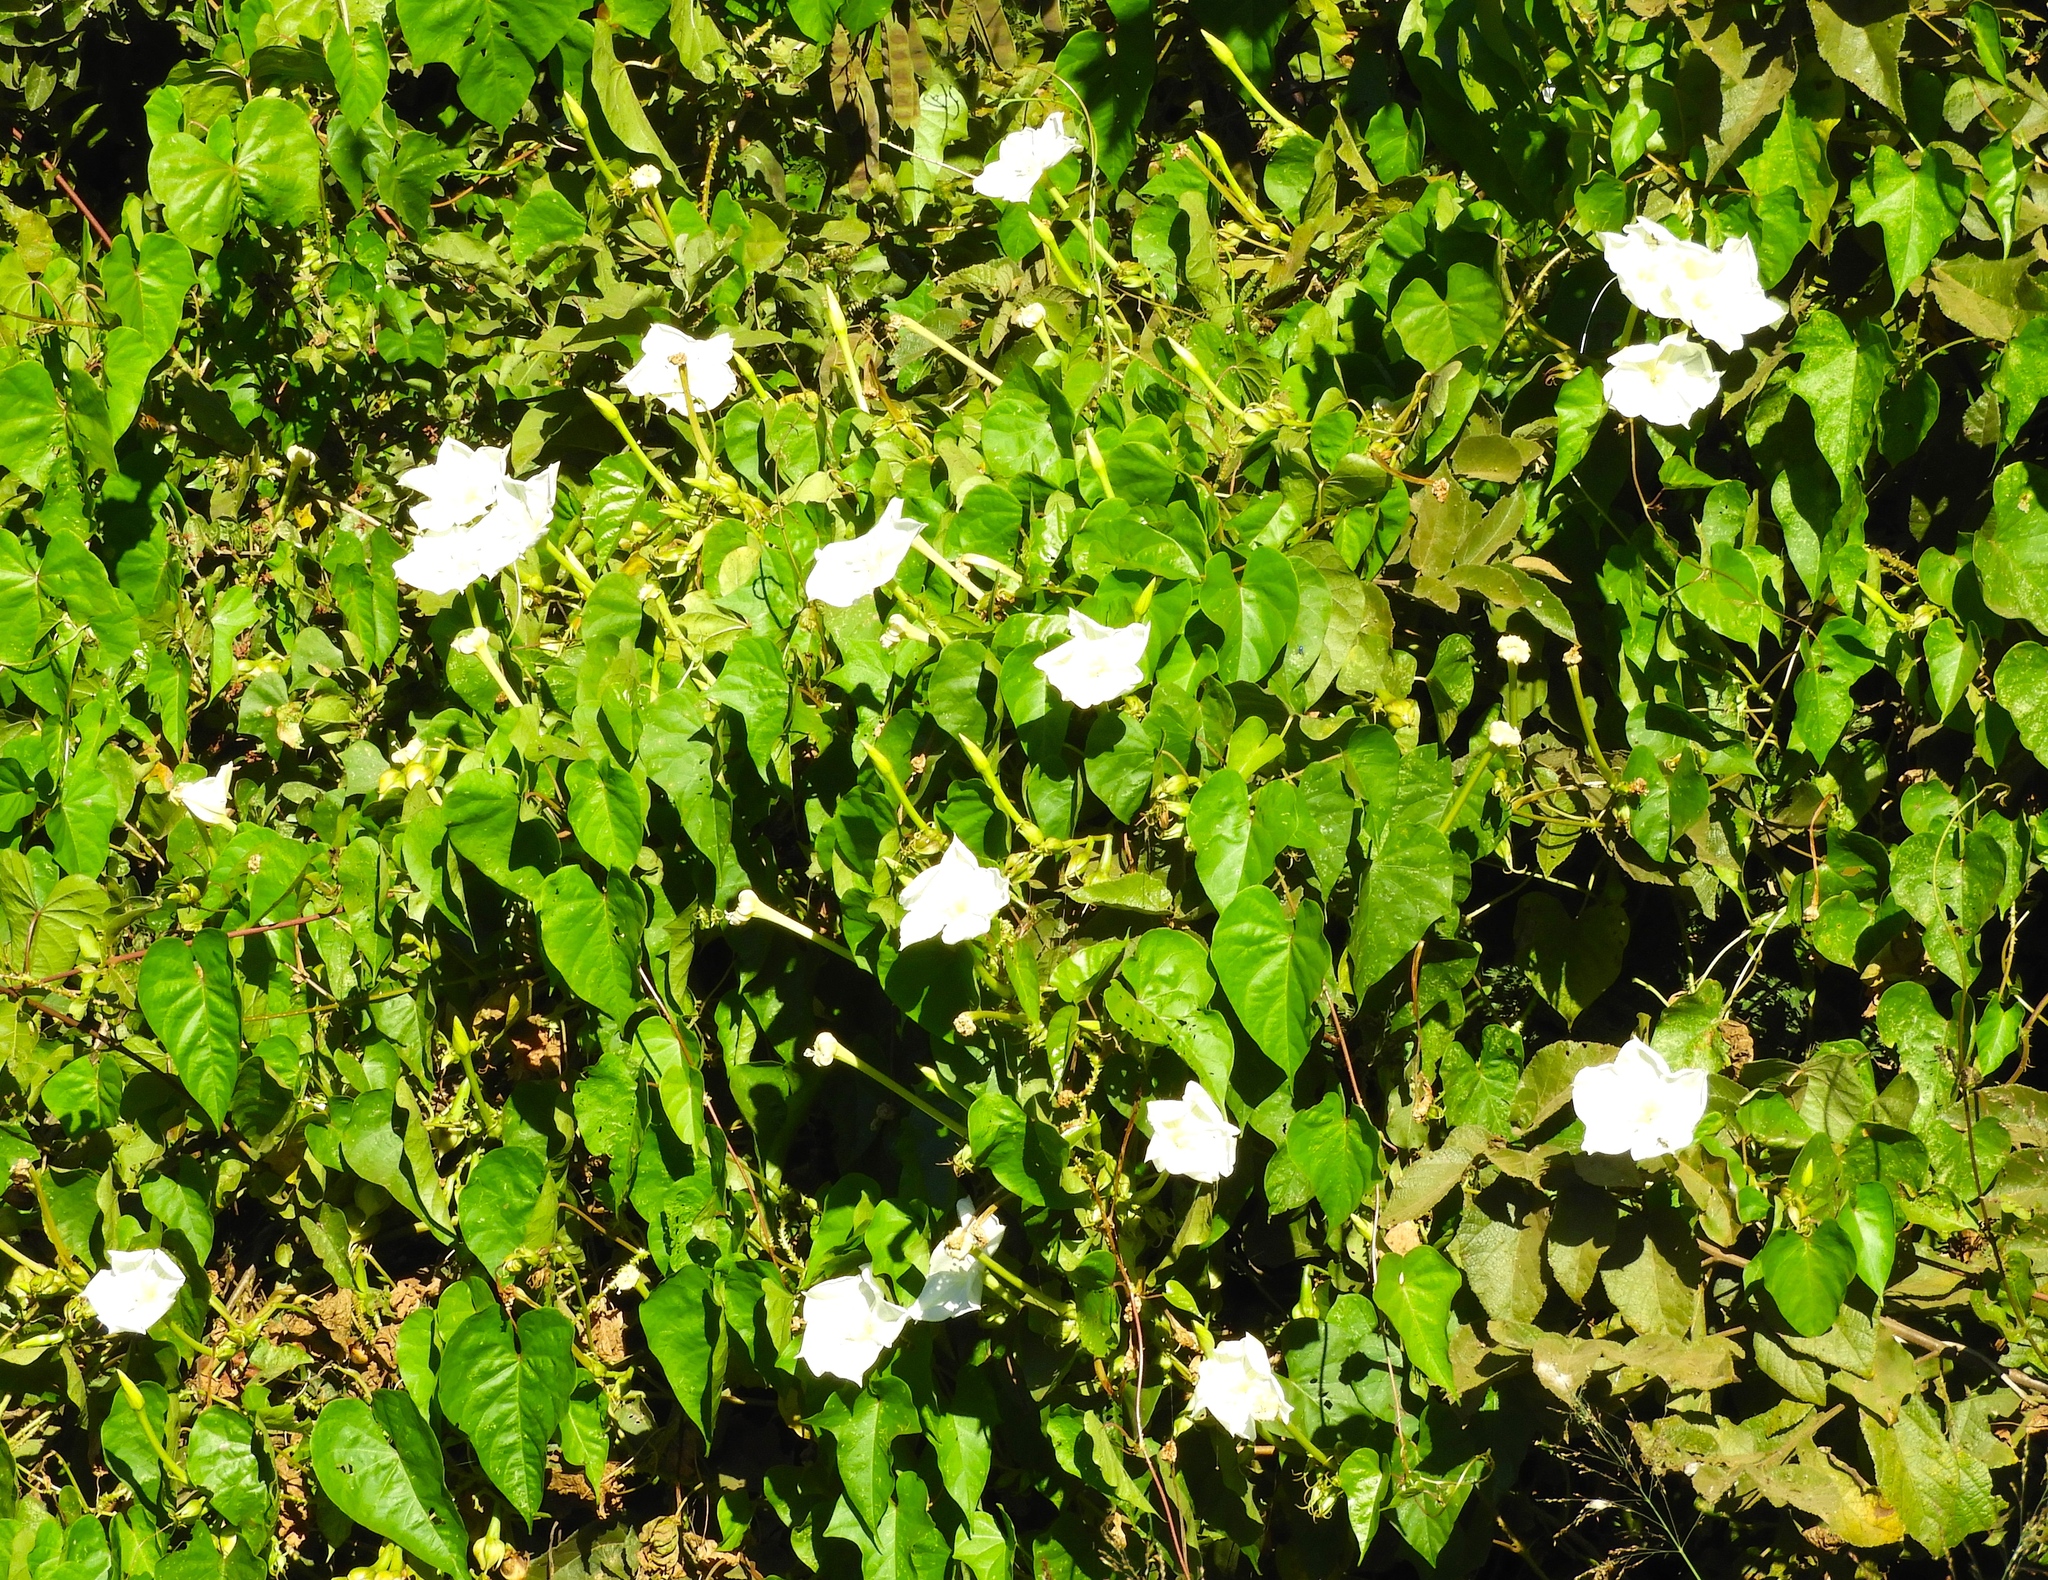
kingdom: Plantae
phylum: Tracheophyta
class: Magnoliopsida
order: Solanales
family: Convolvulaceae
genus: Ipomoea
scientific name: Ipomoea alba
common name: Moonflower
